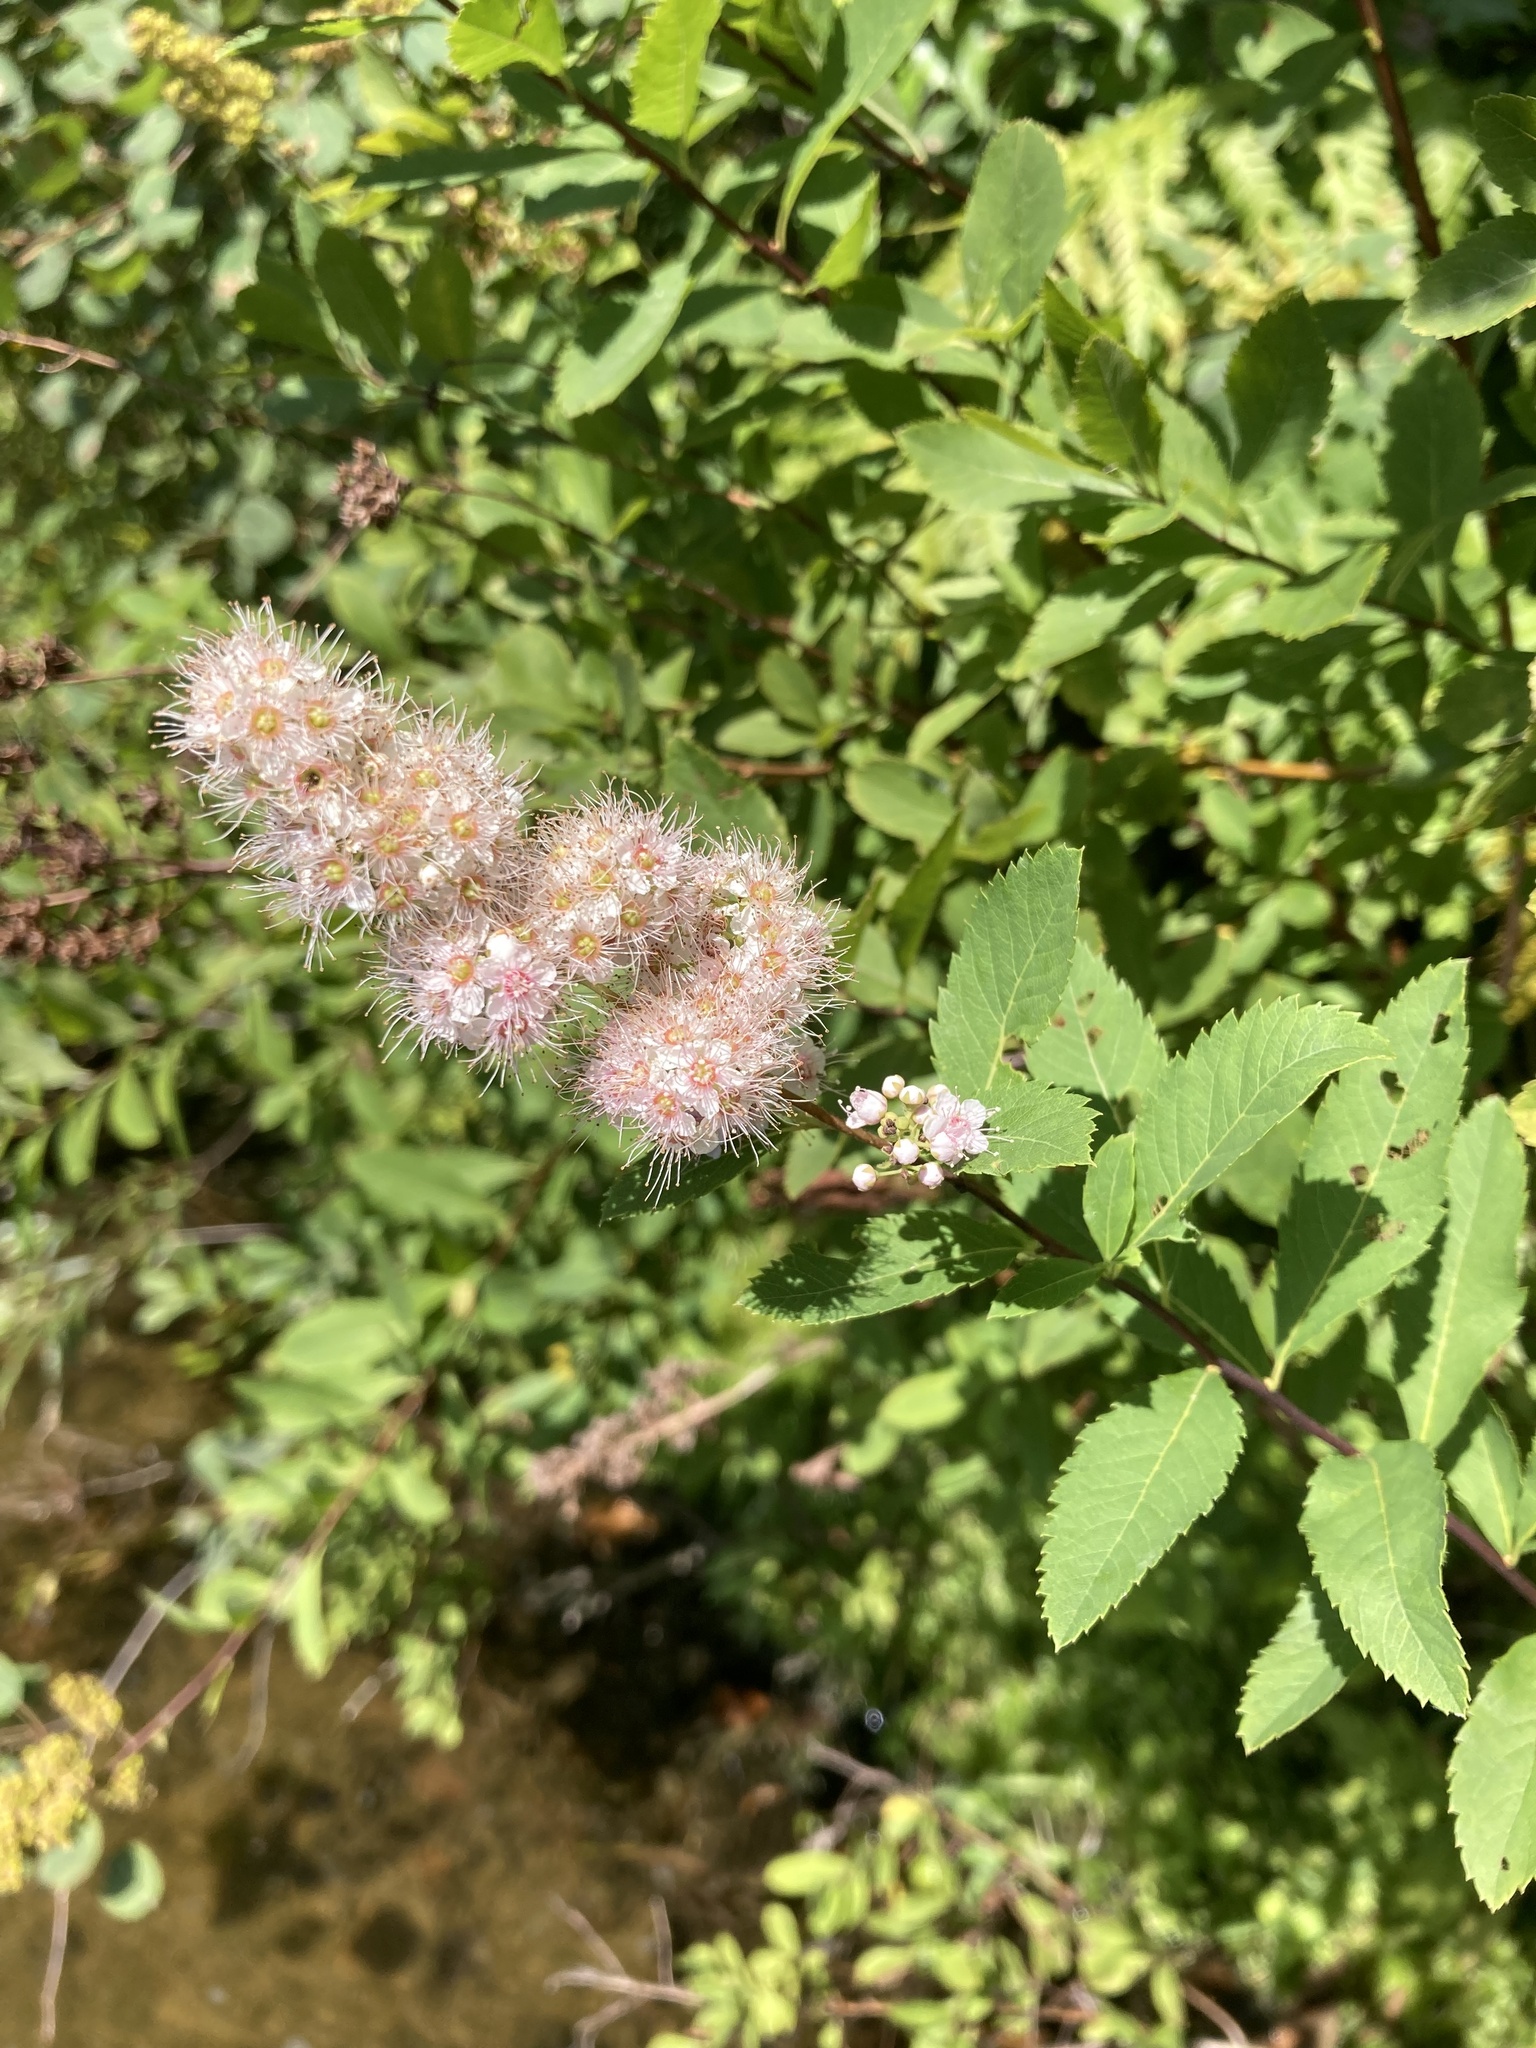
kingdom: Plantae
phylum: Tracheophyta
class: Magnoliopsida
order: Rosales
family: Rosaceae
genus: Spiraea
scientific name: Spiraea alba
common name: Pale bridewort
